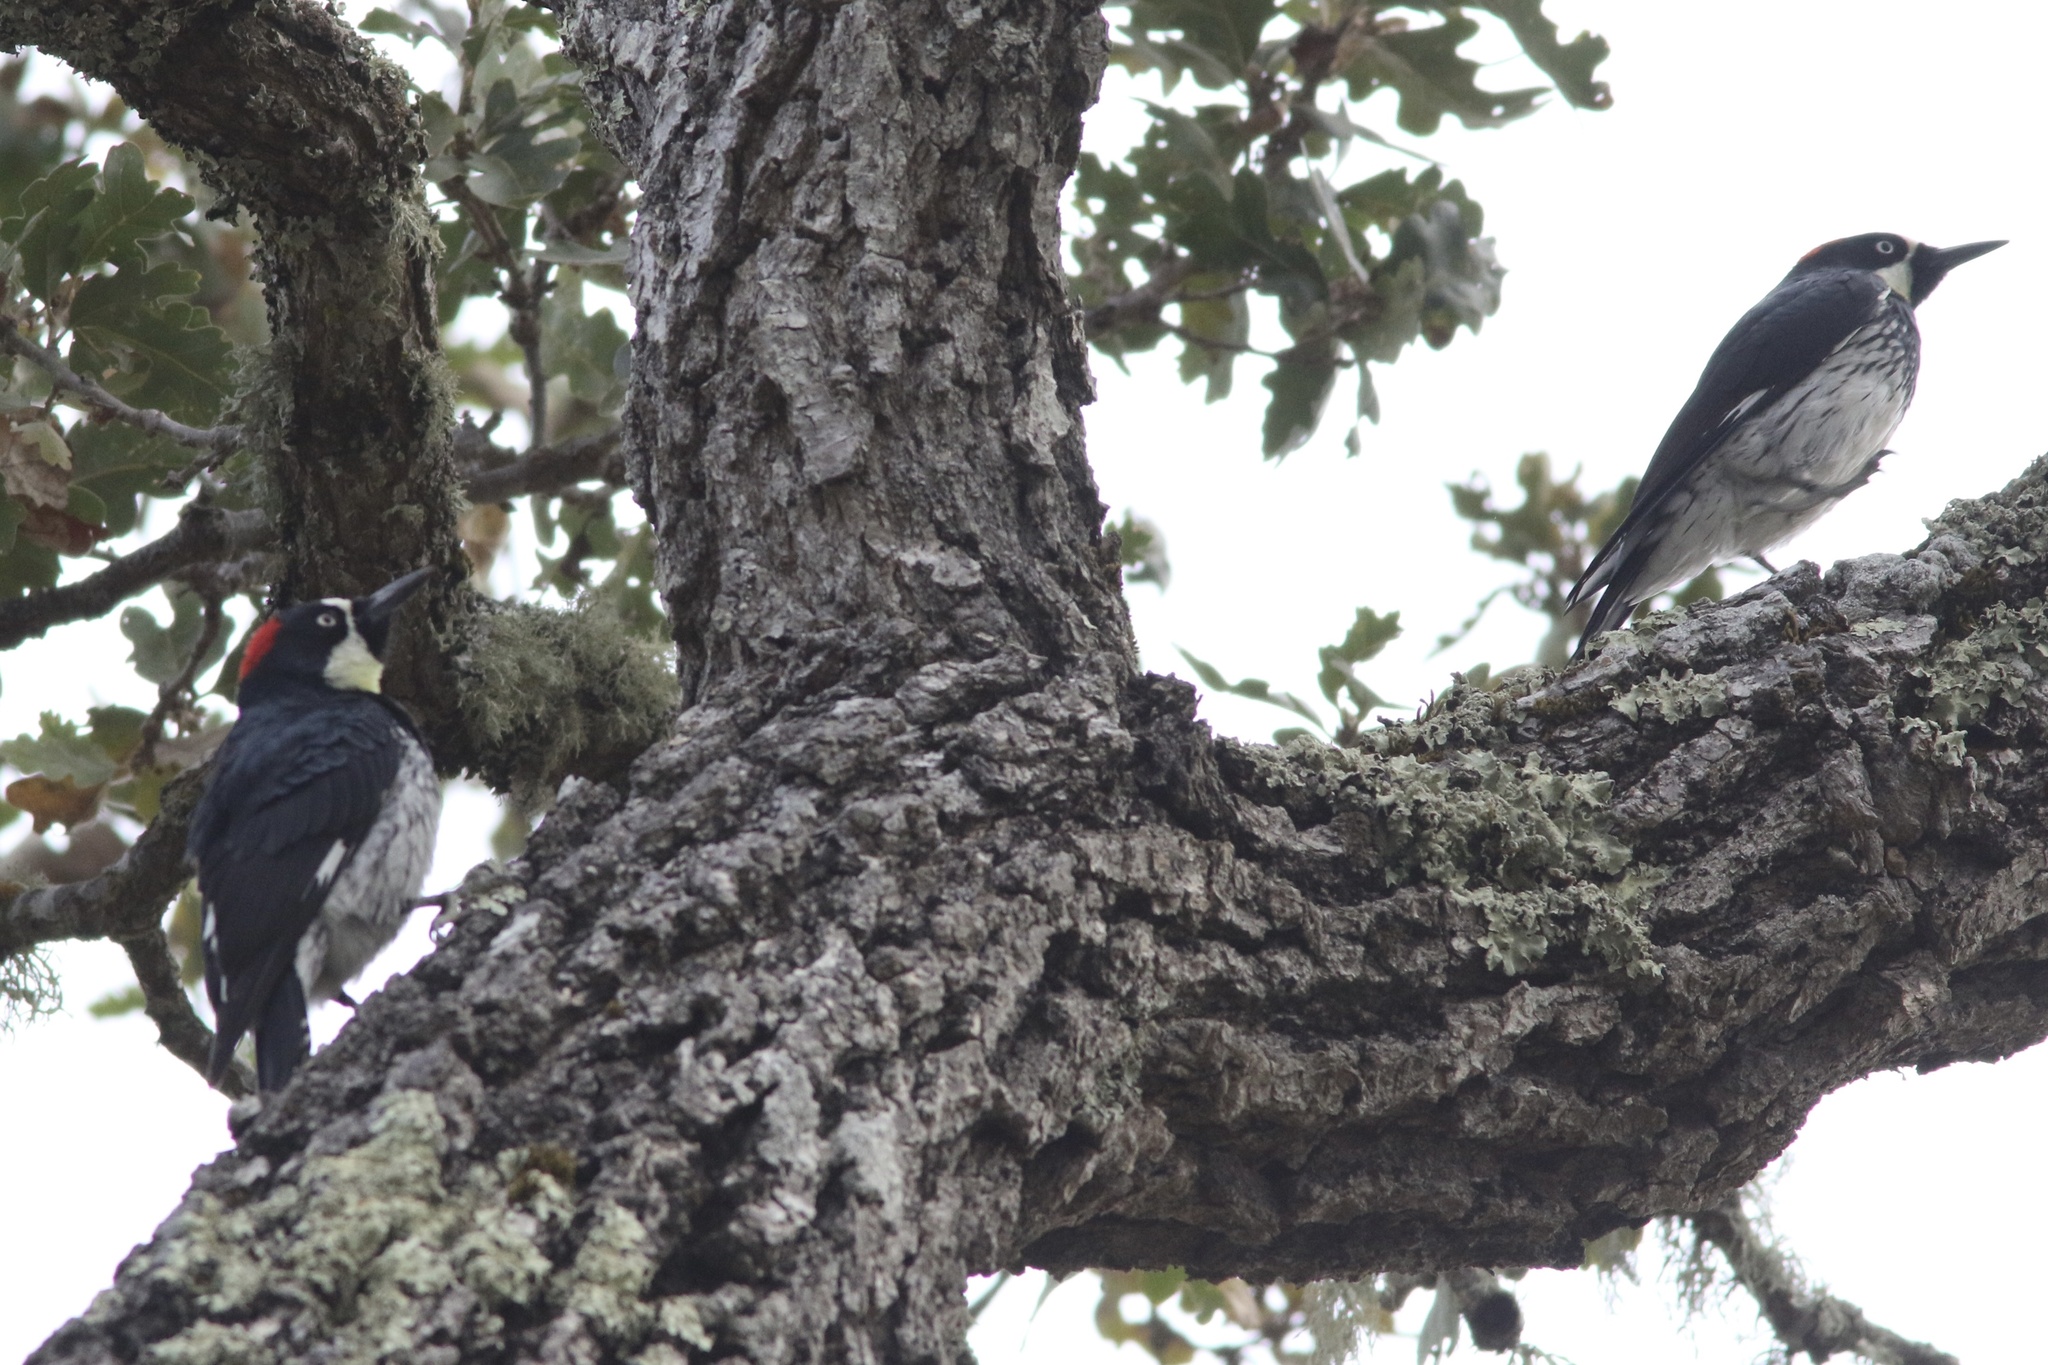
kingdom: Animalia
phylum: Chordata
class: Aves
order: Piciformes
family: Picidae
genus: Melanerpes
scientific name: Melanerpes formicivorus
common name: Acorn woodpecker
